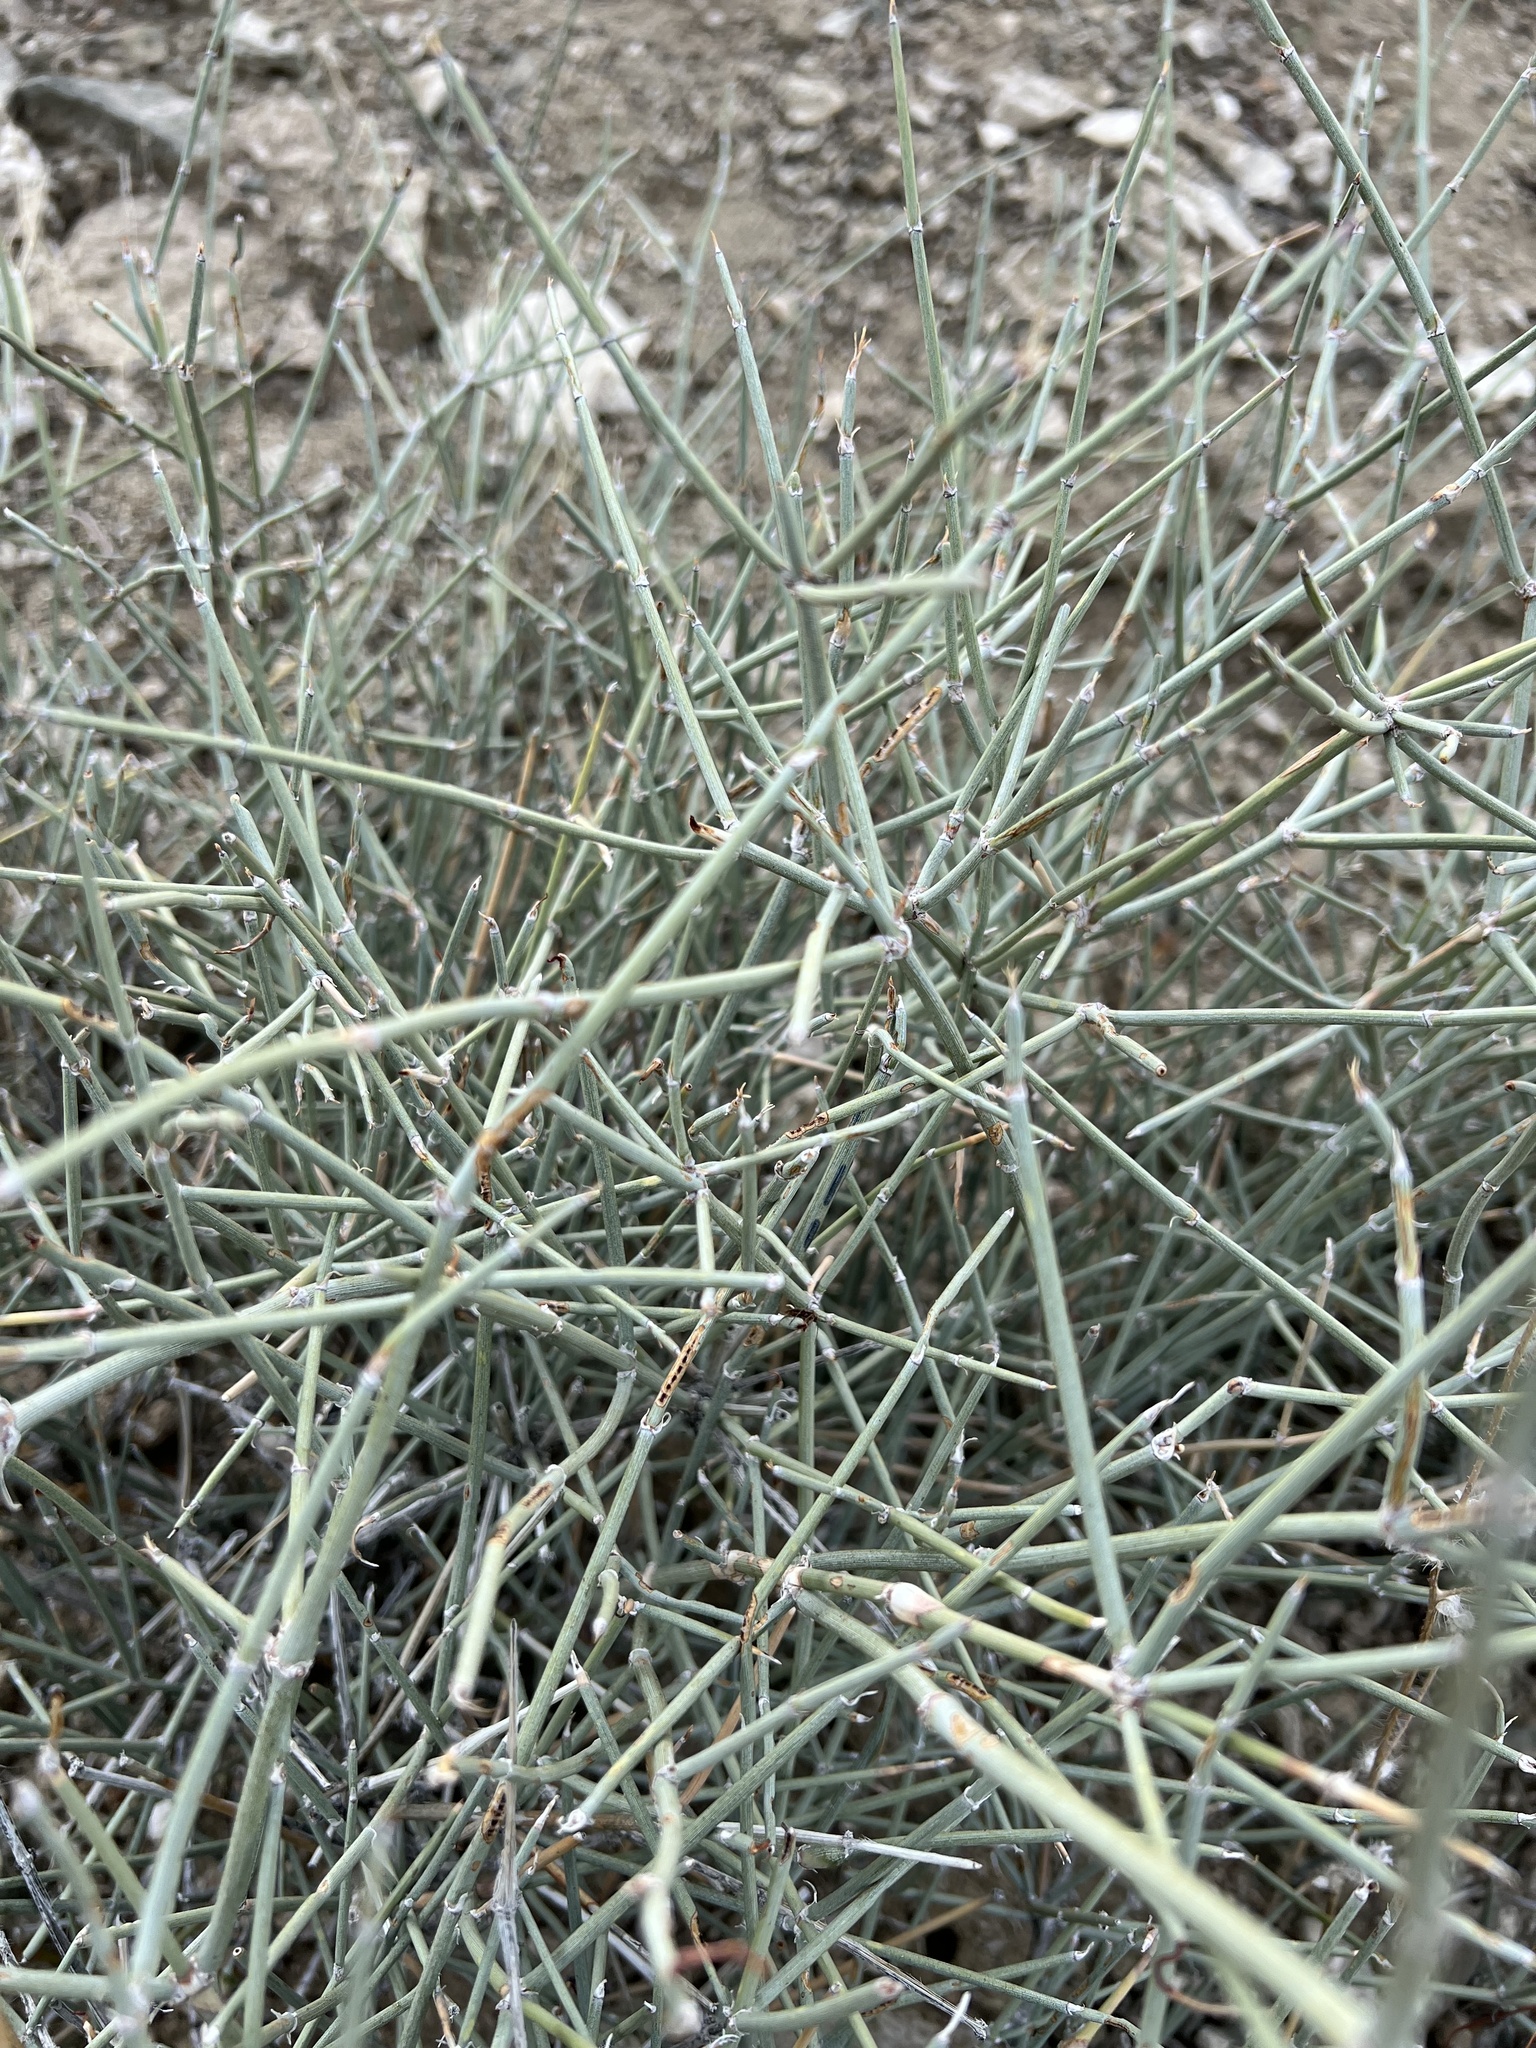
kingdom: Plantae
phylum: Tracheophyta
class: Gnetopsida
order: Ephedrales
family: Ephedraceae
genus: Ephedra
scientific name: Ephedra nevadensis
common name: Gray ephedra
